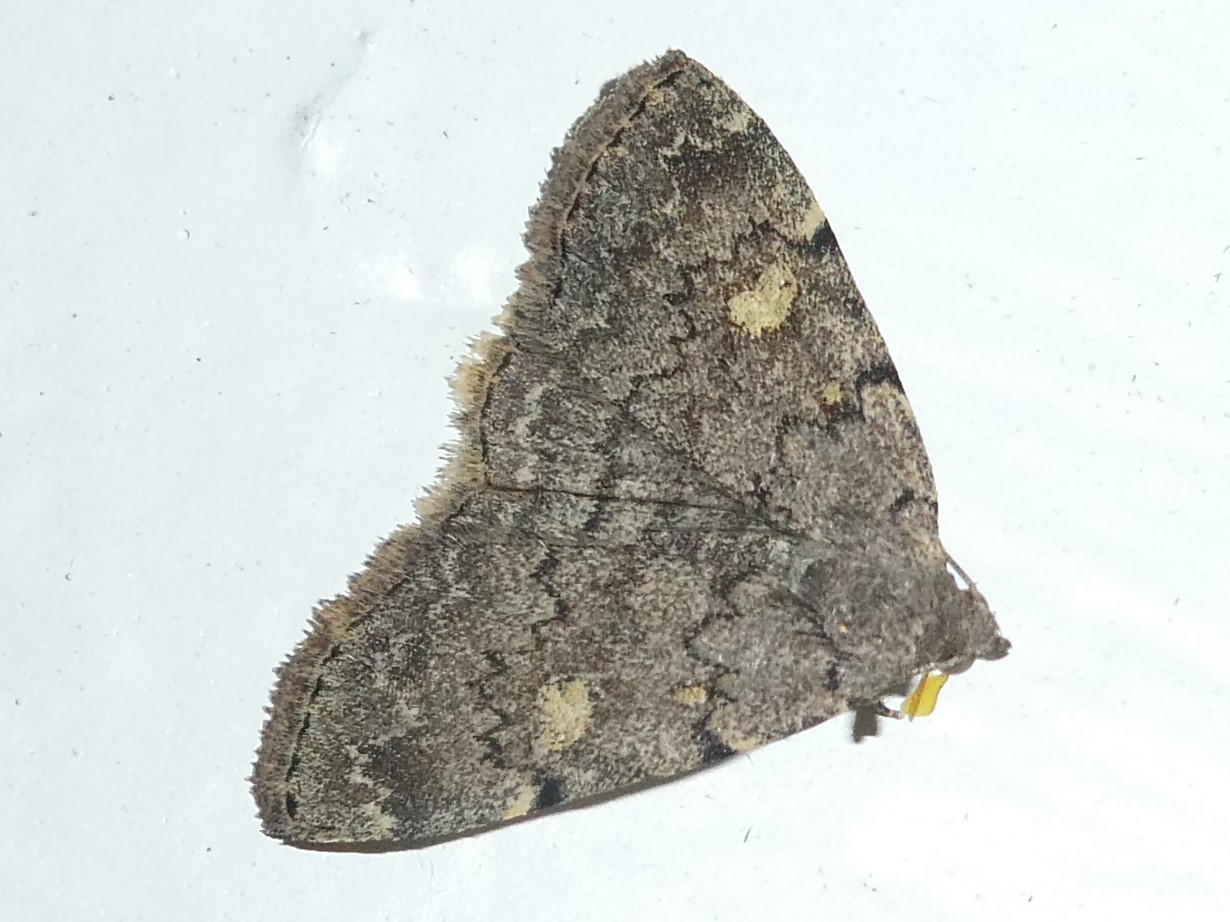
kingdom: Animalia
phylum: Arthropoda
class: Insecta
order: Lepidoptera
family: Erebidae
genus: Idia
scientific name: Idia aemula
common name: Common idia moth
